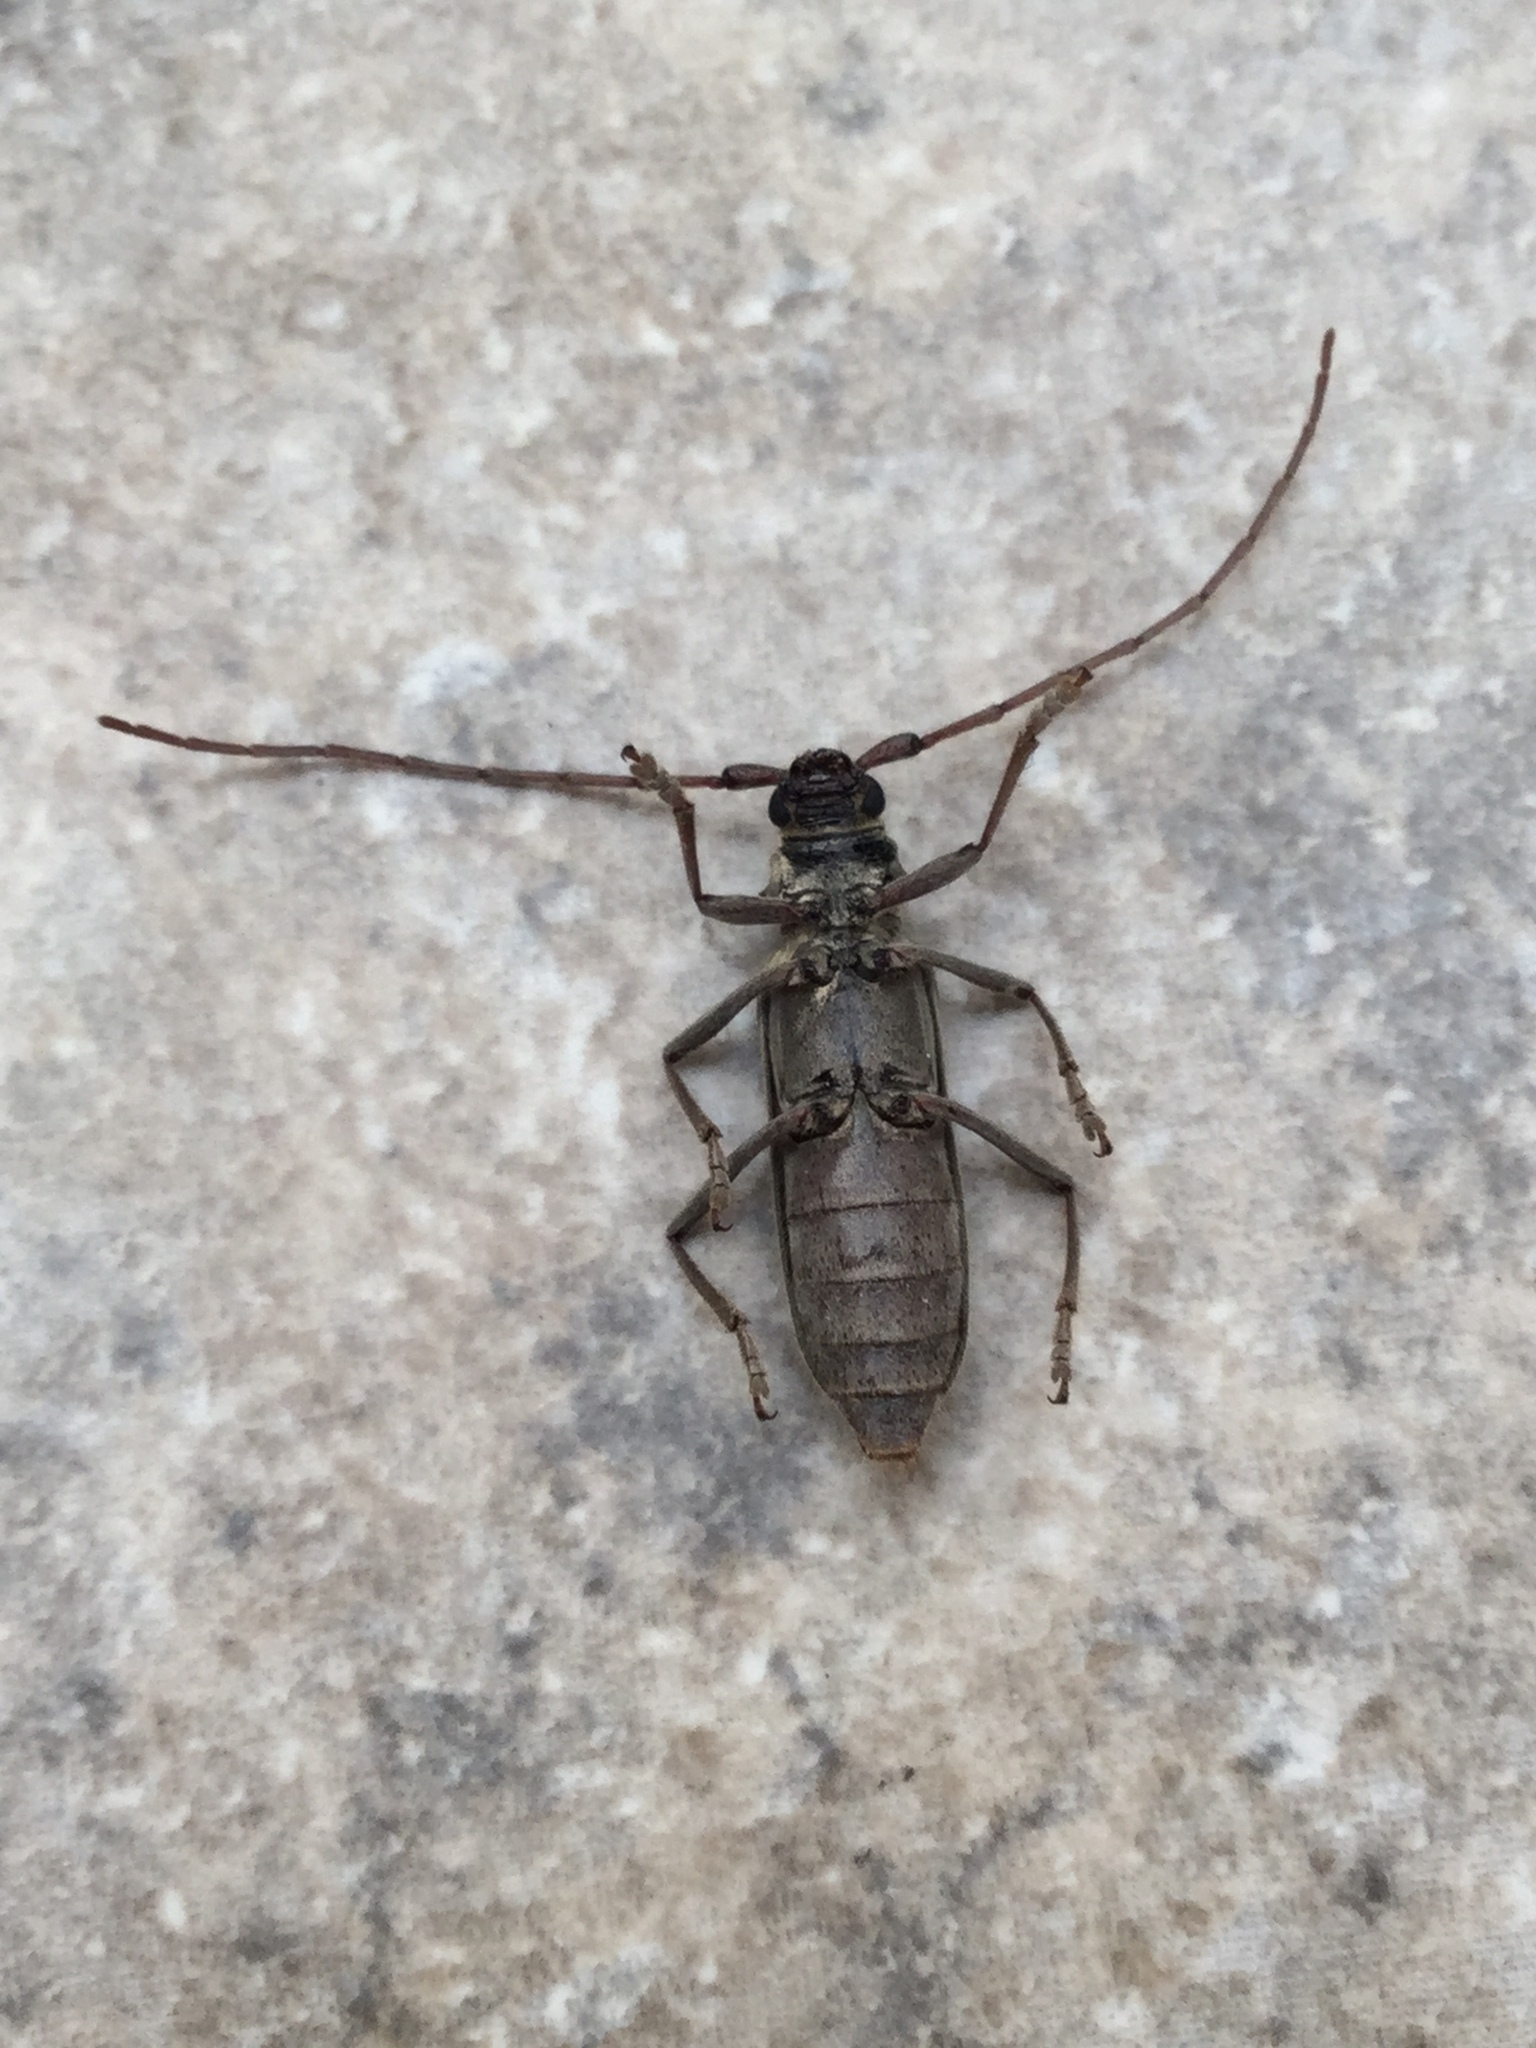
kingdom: Animalia
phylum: Arthropoda
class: Insecta
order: Coleoptera
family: Cerambycidae
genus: Susuacanga
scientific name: Susuacanga patruelis
